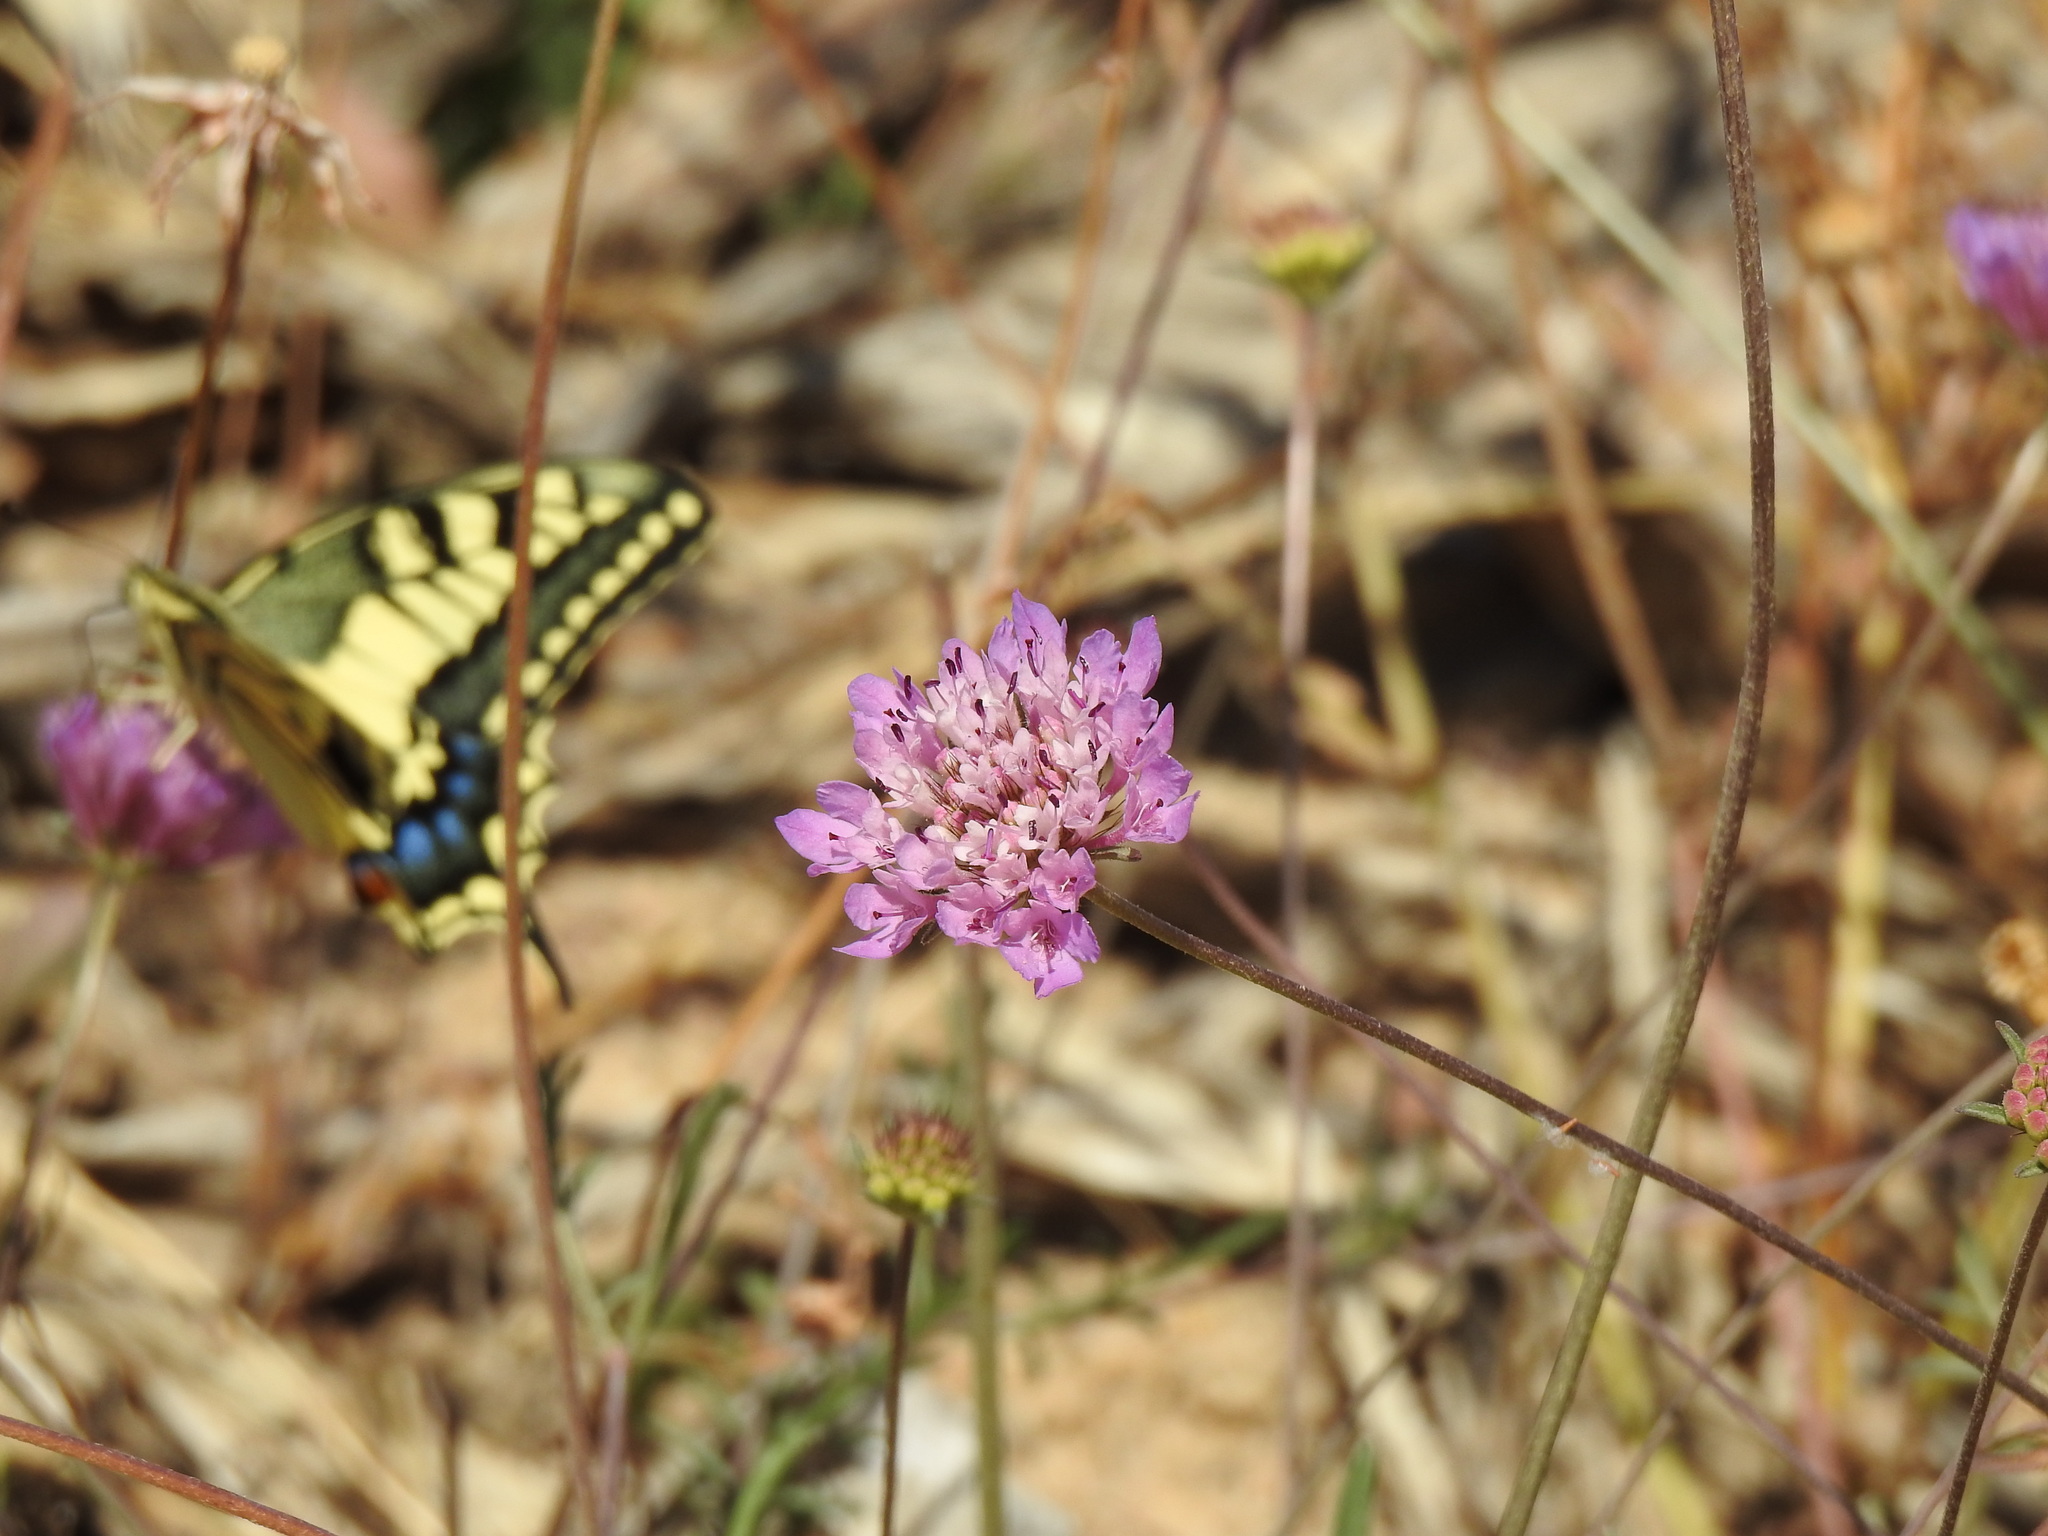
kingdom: Plantae
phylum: Tracheophyta
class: Magnoliopsida
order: Dipsacales
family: Caprifoliaceae
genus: Sixalix
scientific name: Sixalix atropurpurea
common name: Sweet scabious
